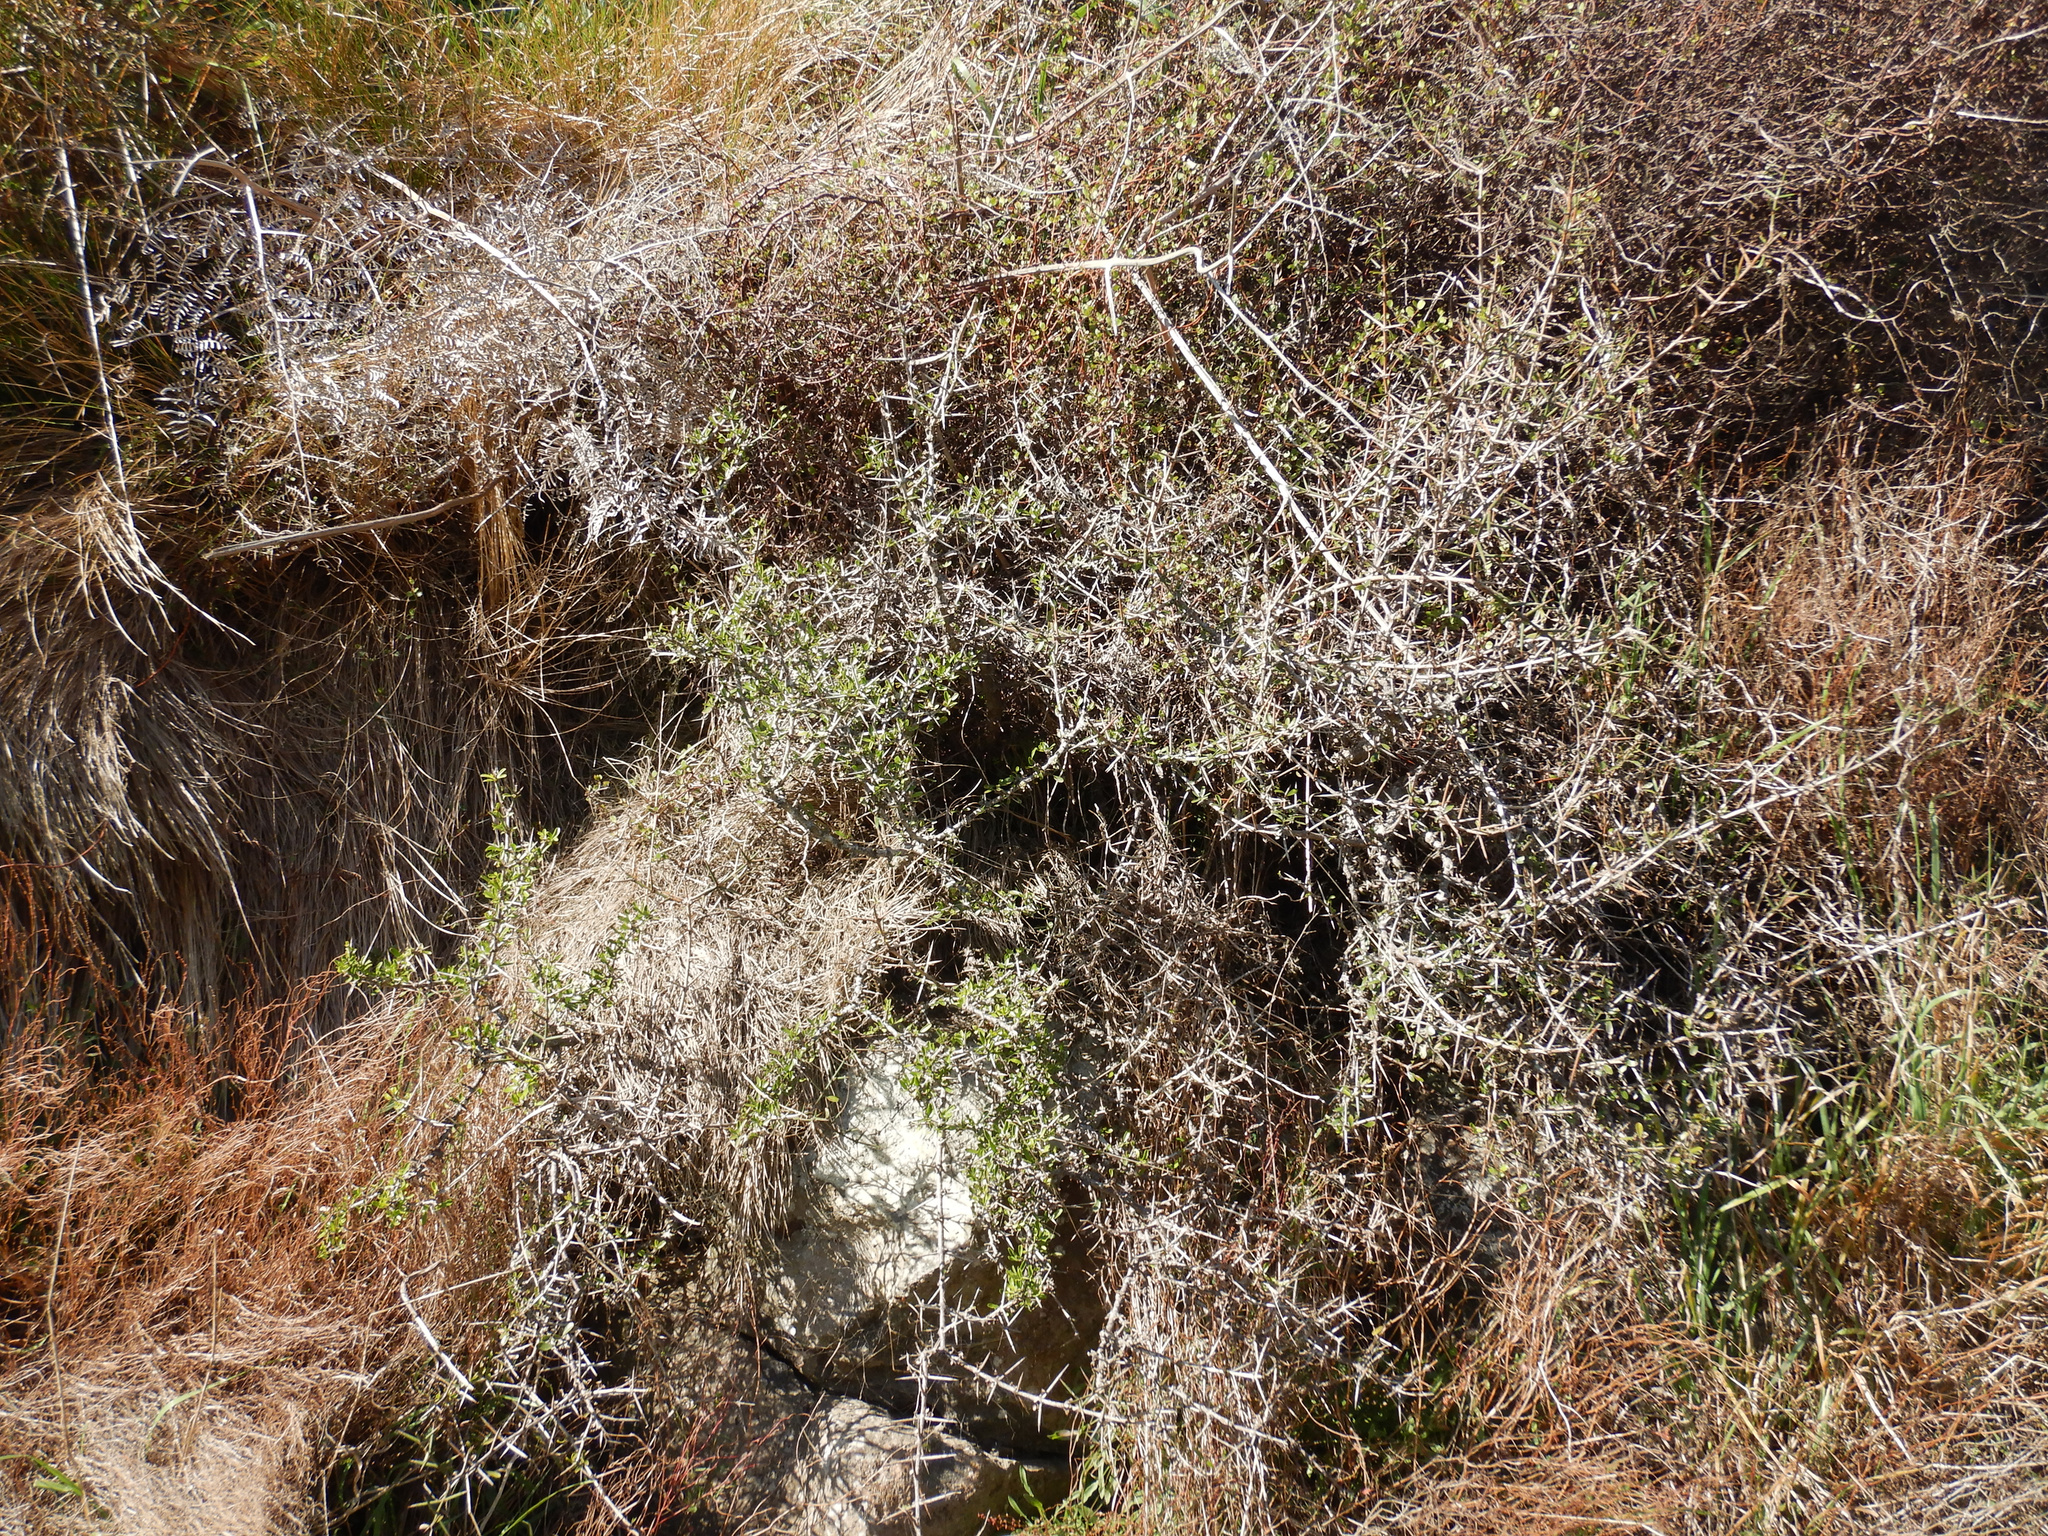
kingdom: Plantae
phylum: Tracheophyta
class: Magnoliopsida
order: Rosales
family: Rhamnaceae
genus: Discaria
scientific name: Discaria toumatou
